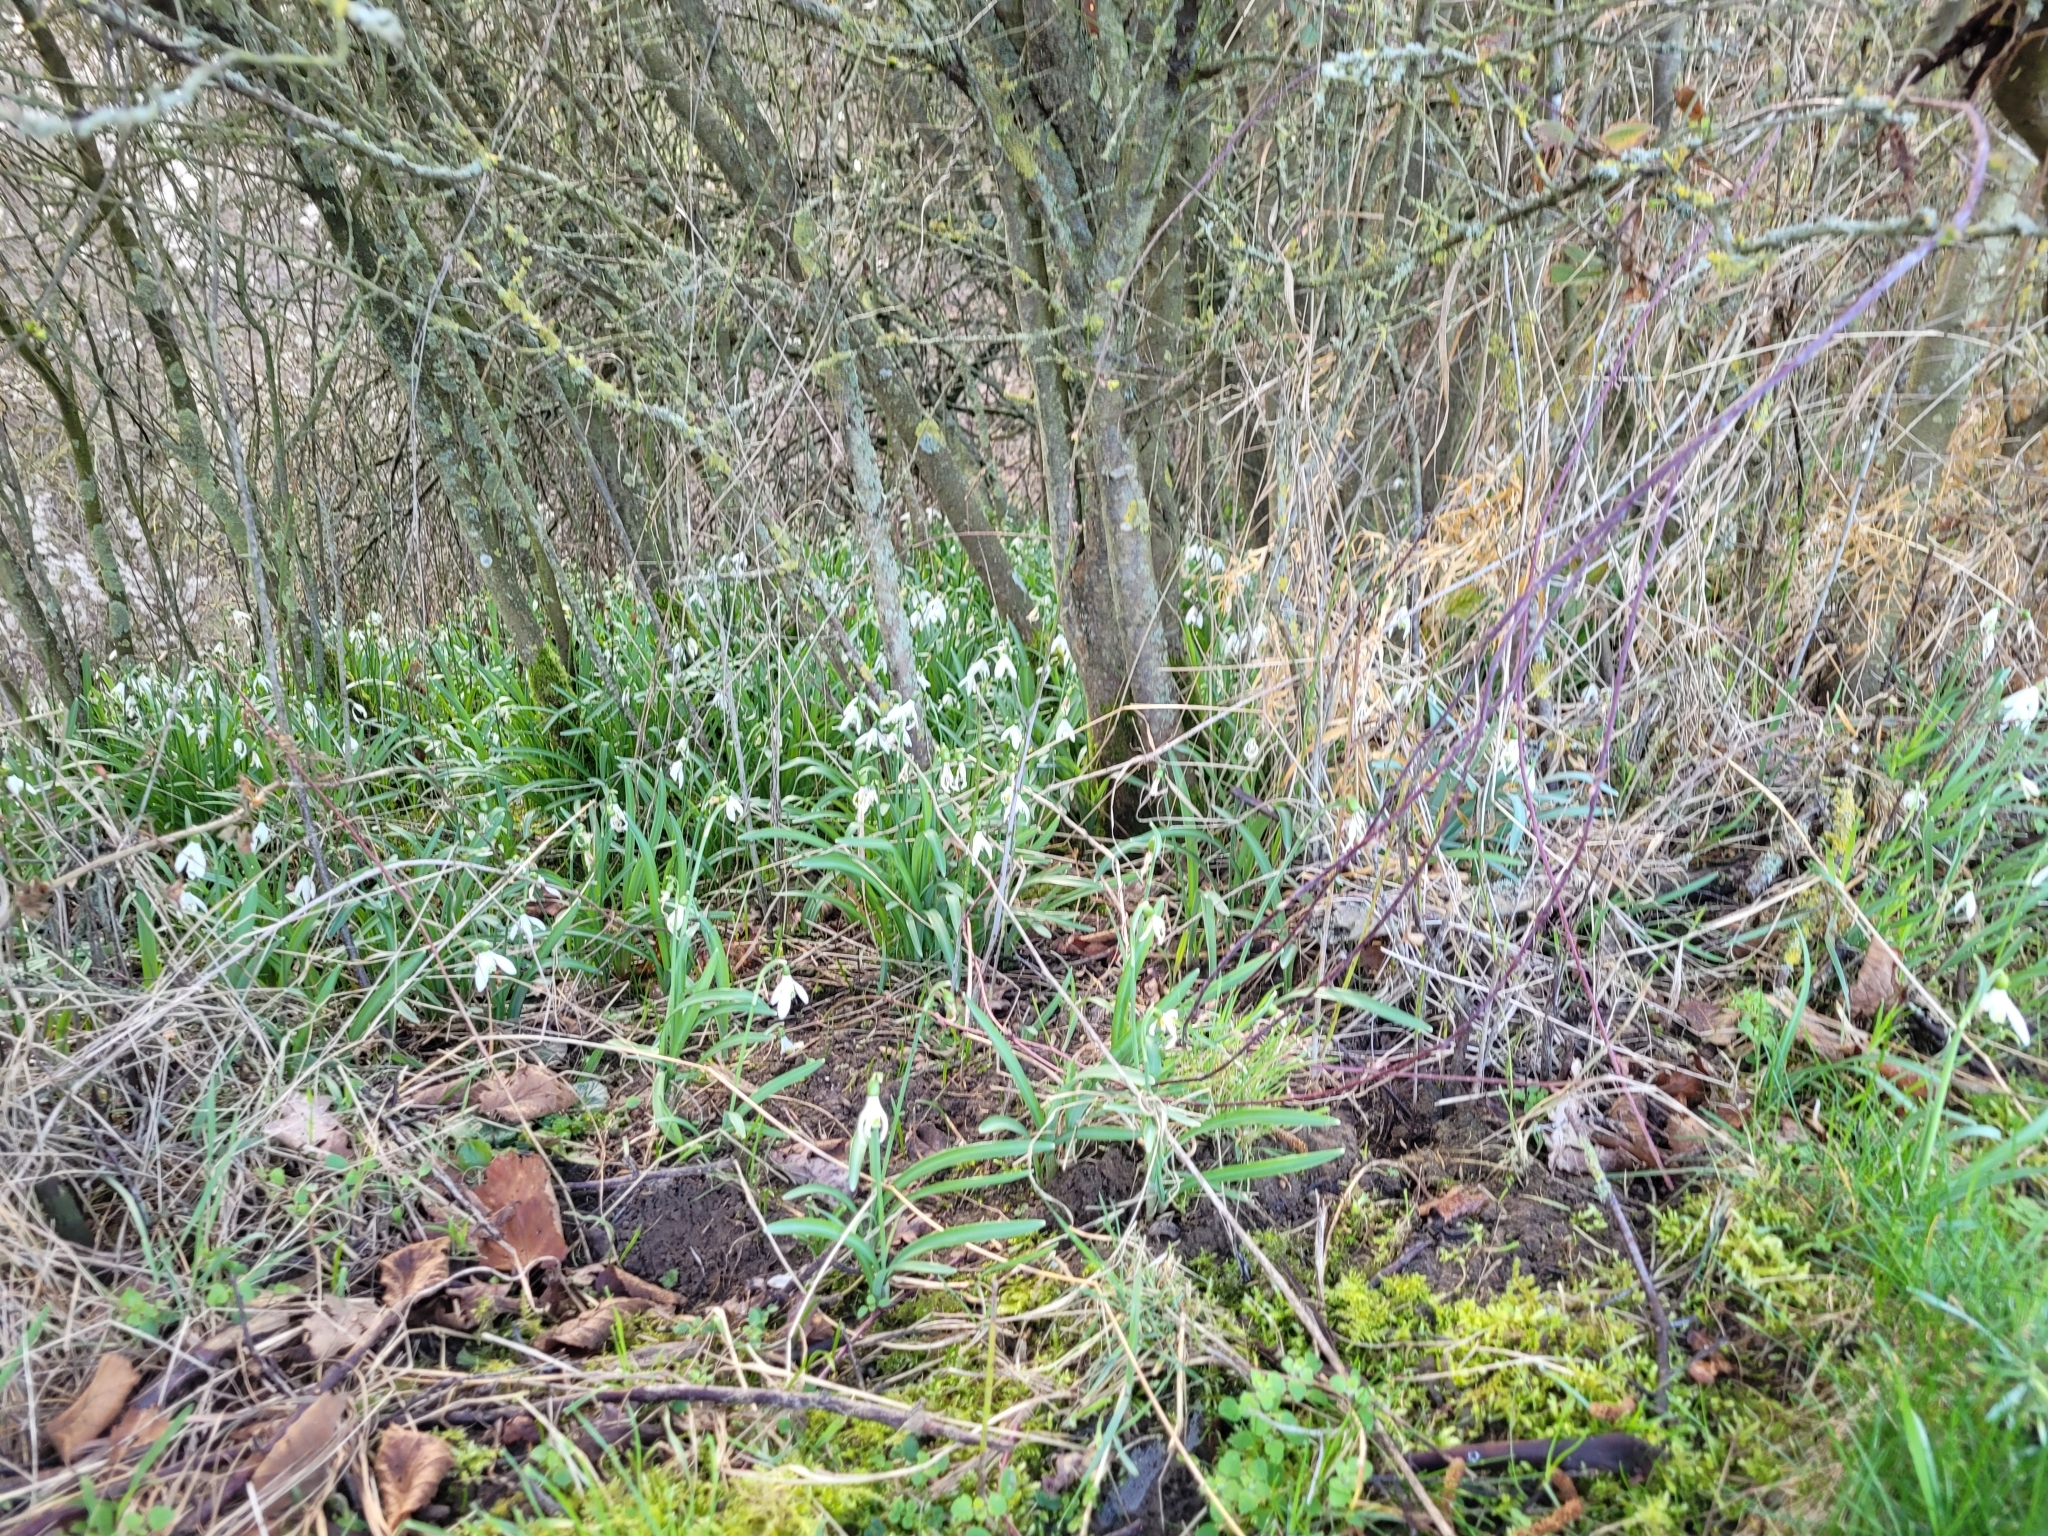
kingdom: Plantae
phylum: Tracheophyta
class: Liliopsida
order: Asparagales
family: Amaryllidaceae
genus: Galanthus
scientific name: Galanthus nivalis
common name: Snowdrop
